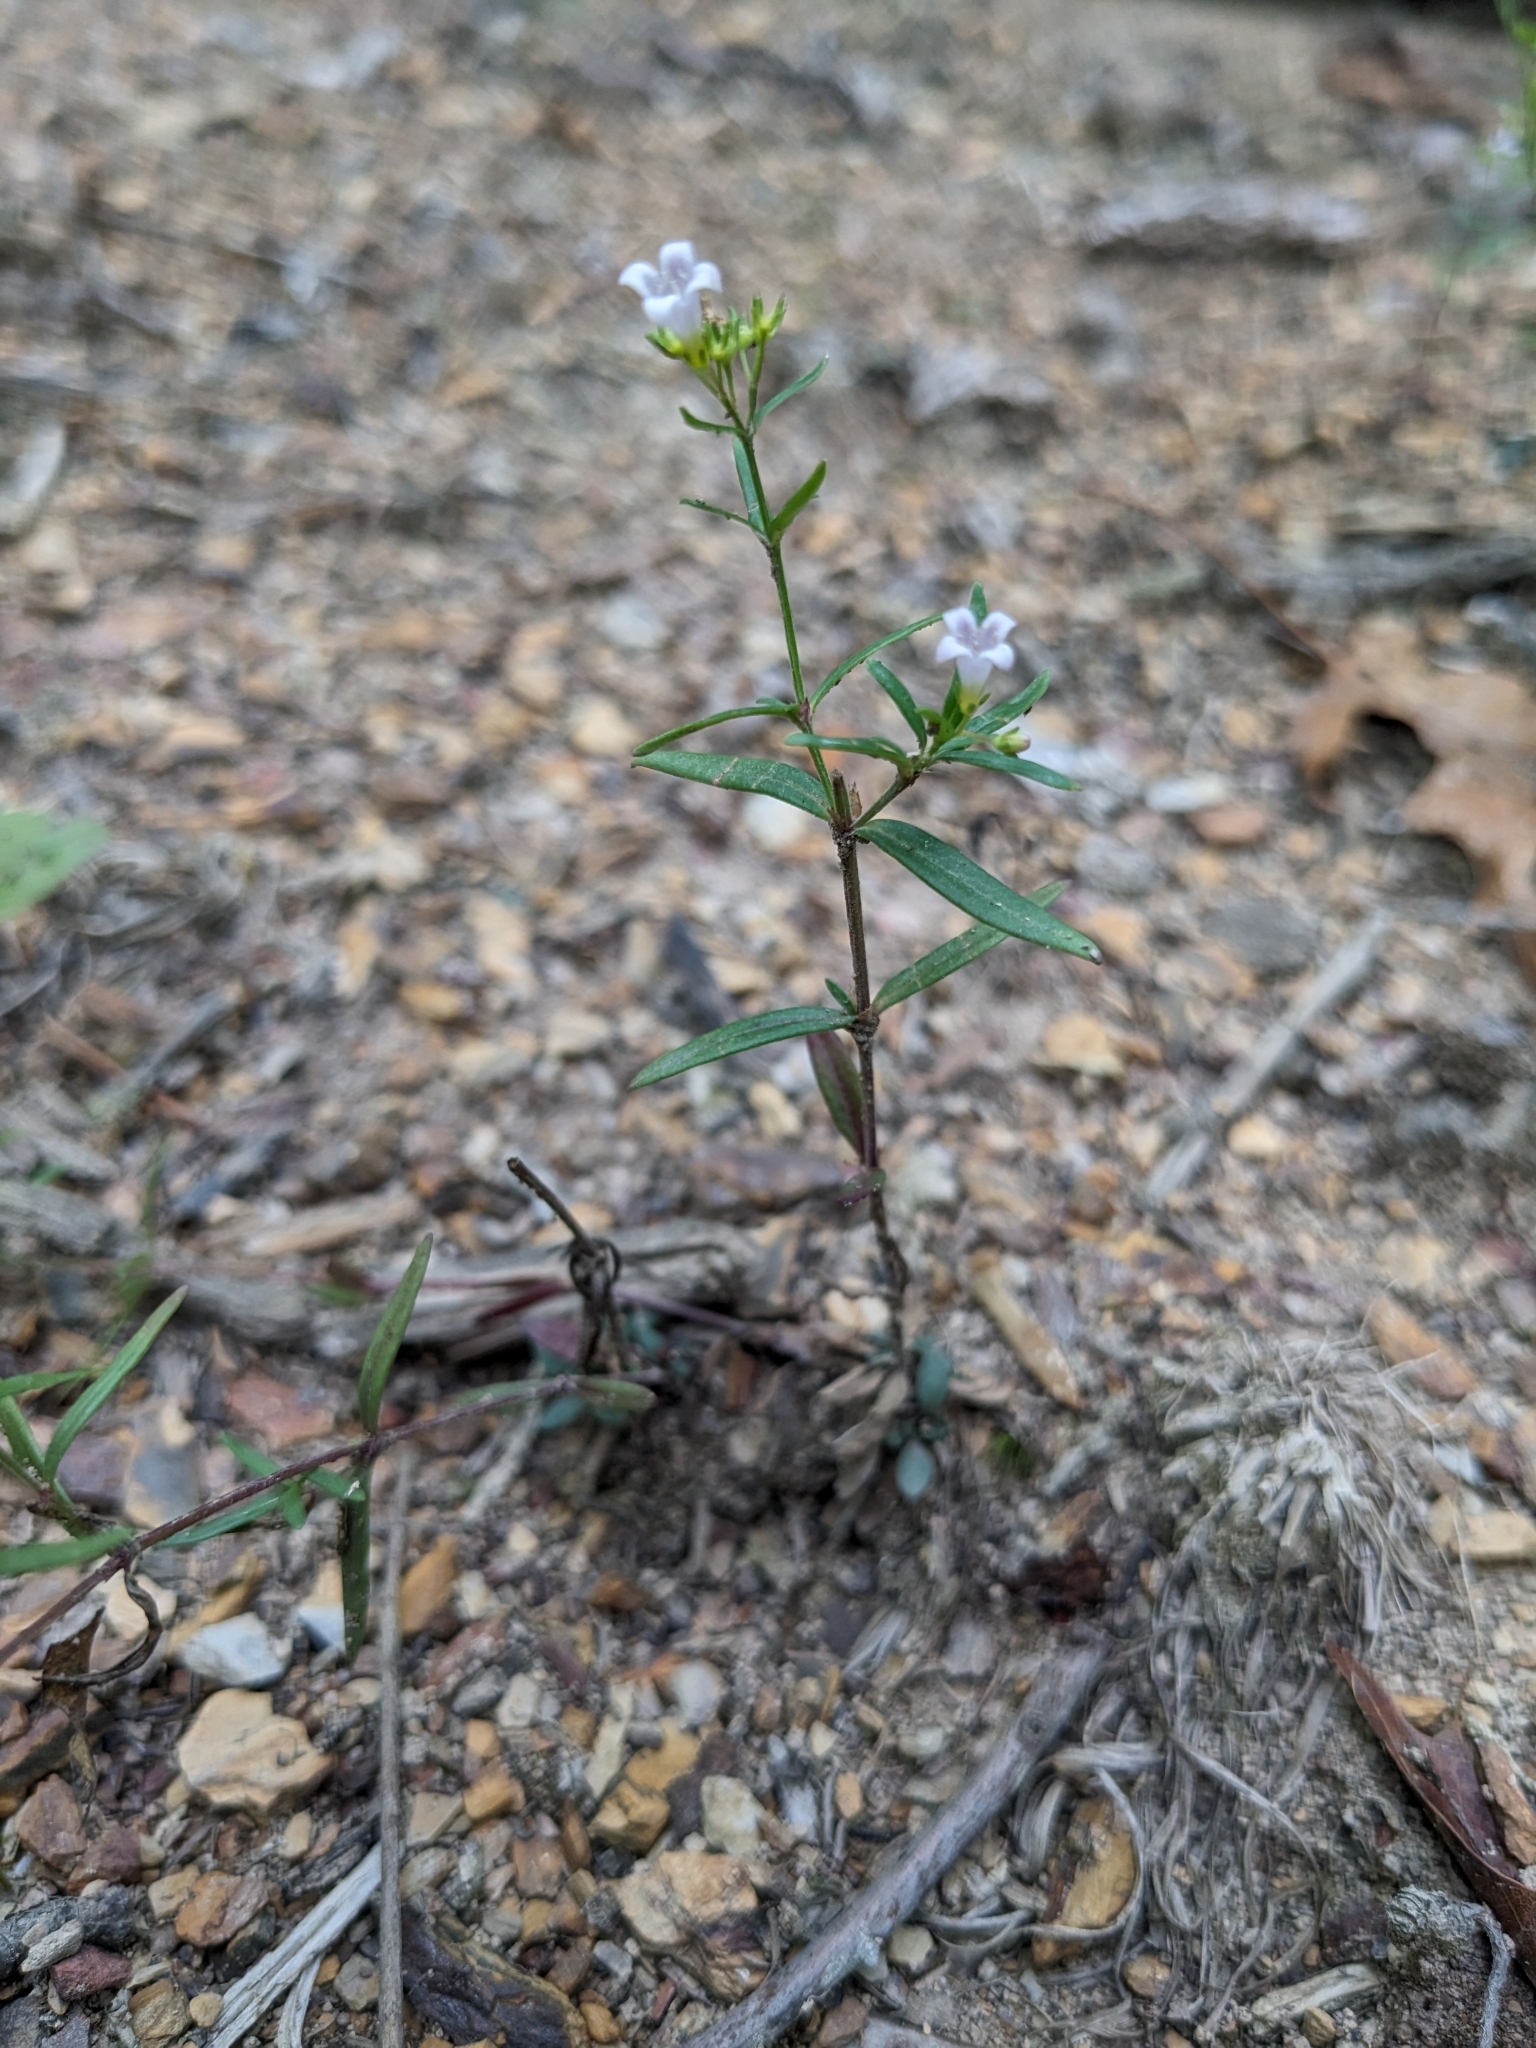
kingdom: Plantae
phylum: Tracheophyta
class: Magnoliopsida
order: Gentianales
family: Rubiaceae
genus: Houstonia
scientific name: Houstonia longifolia
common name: Long-leaved bluets
